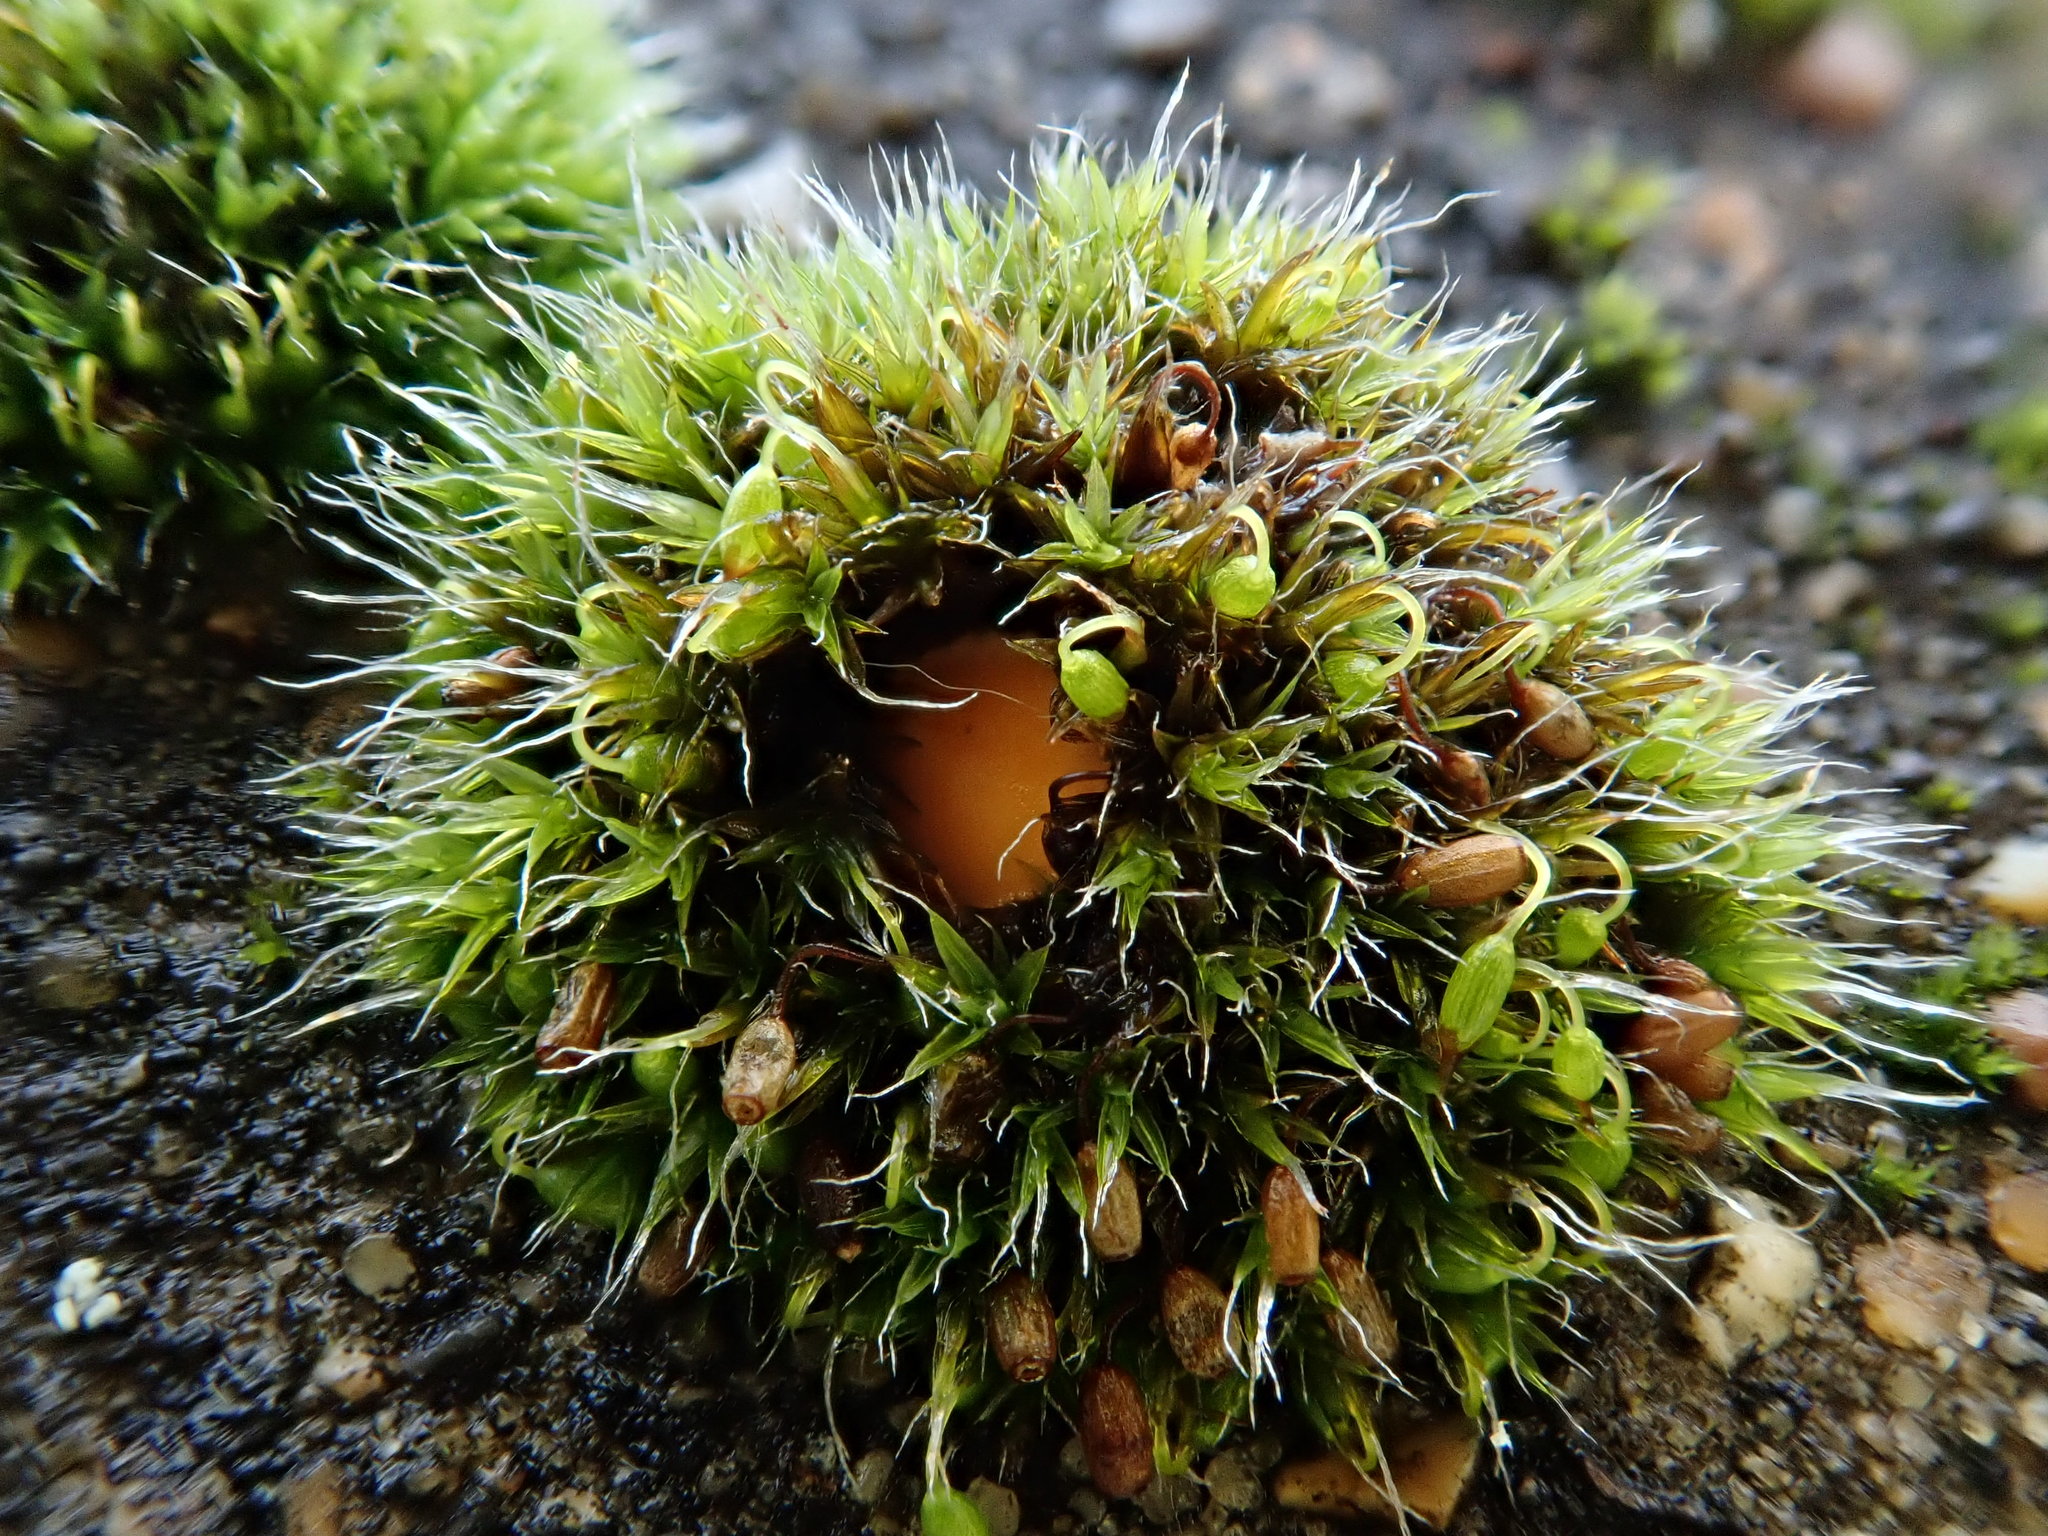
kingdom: Plantae
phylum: Bryophyta
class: Bryopsida
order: Grimmiales
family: Grimmiaceae
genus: Grimmia
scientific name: Grimmia pulvinata
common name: Grey-cushioned grimmia
